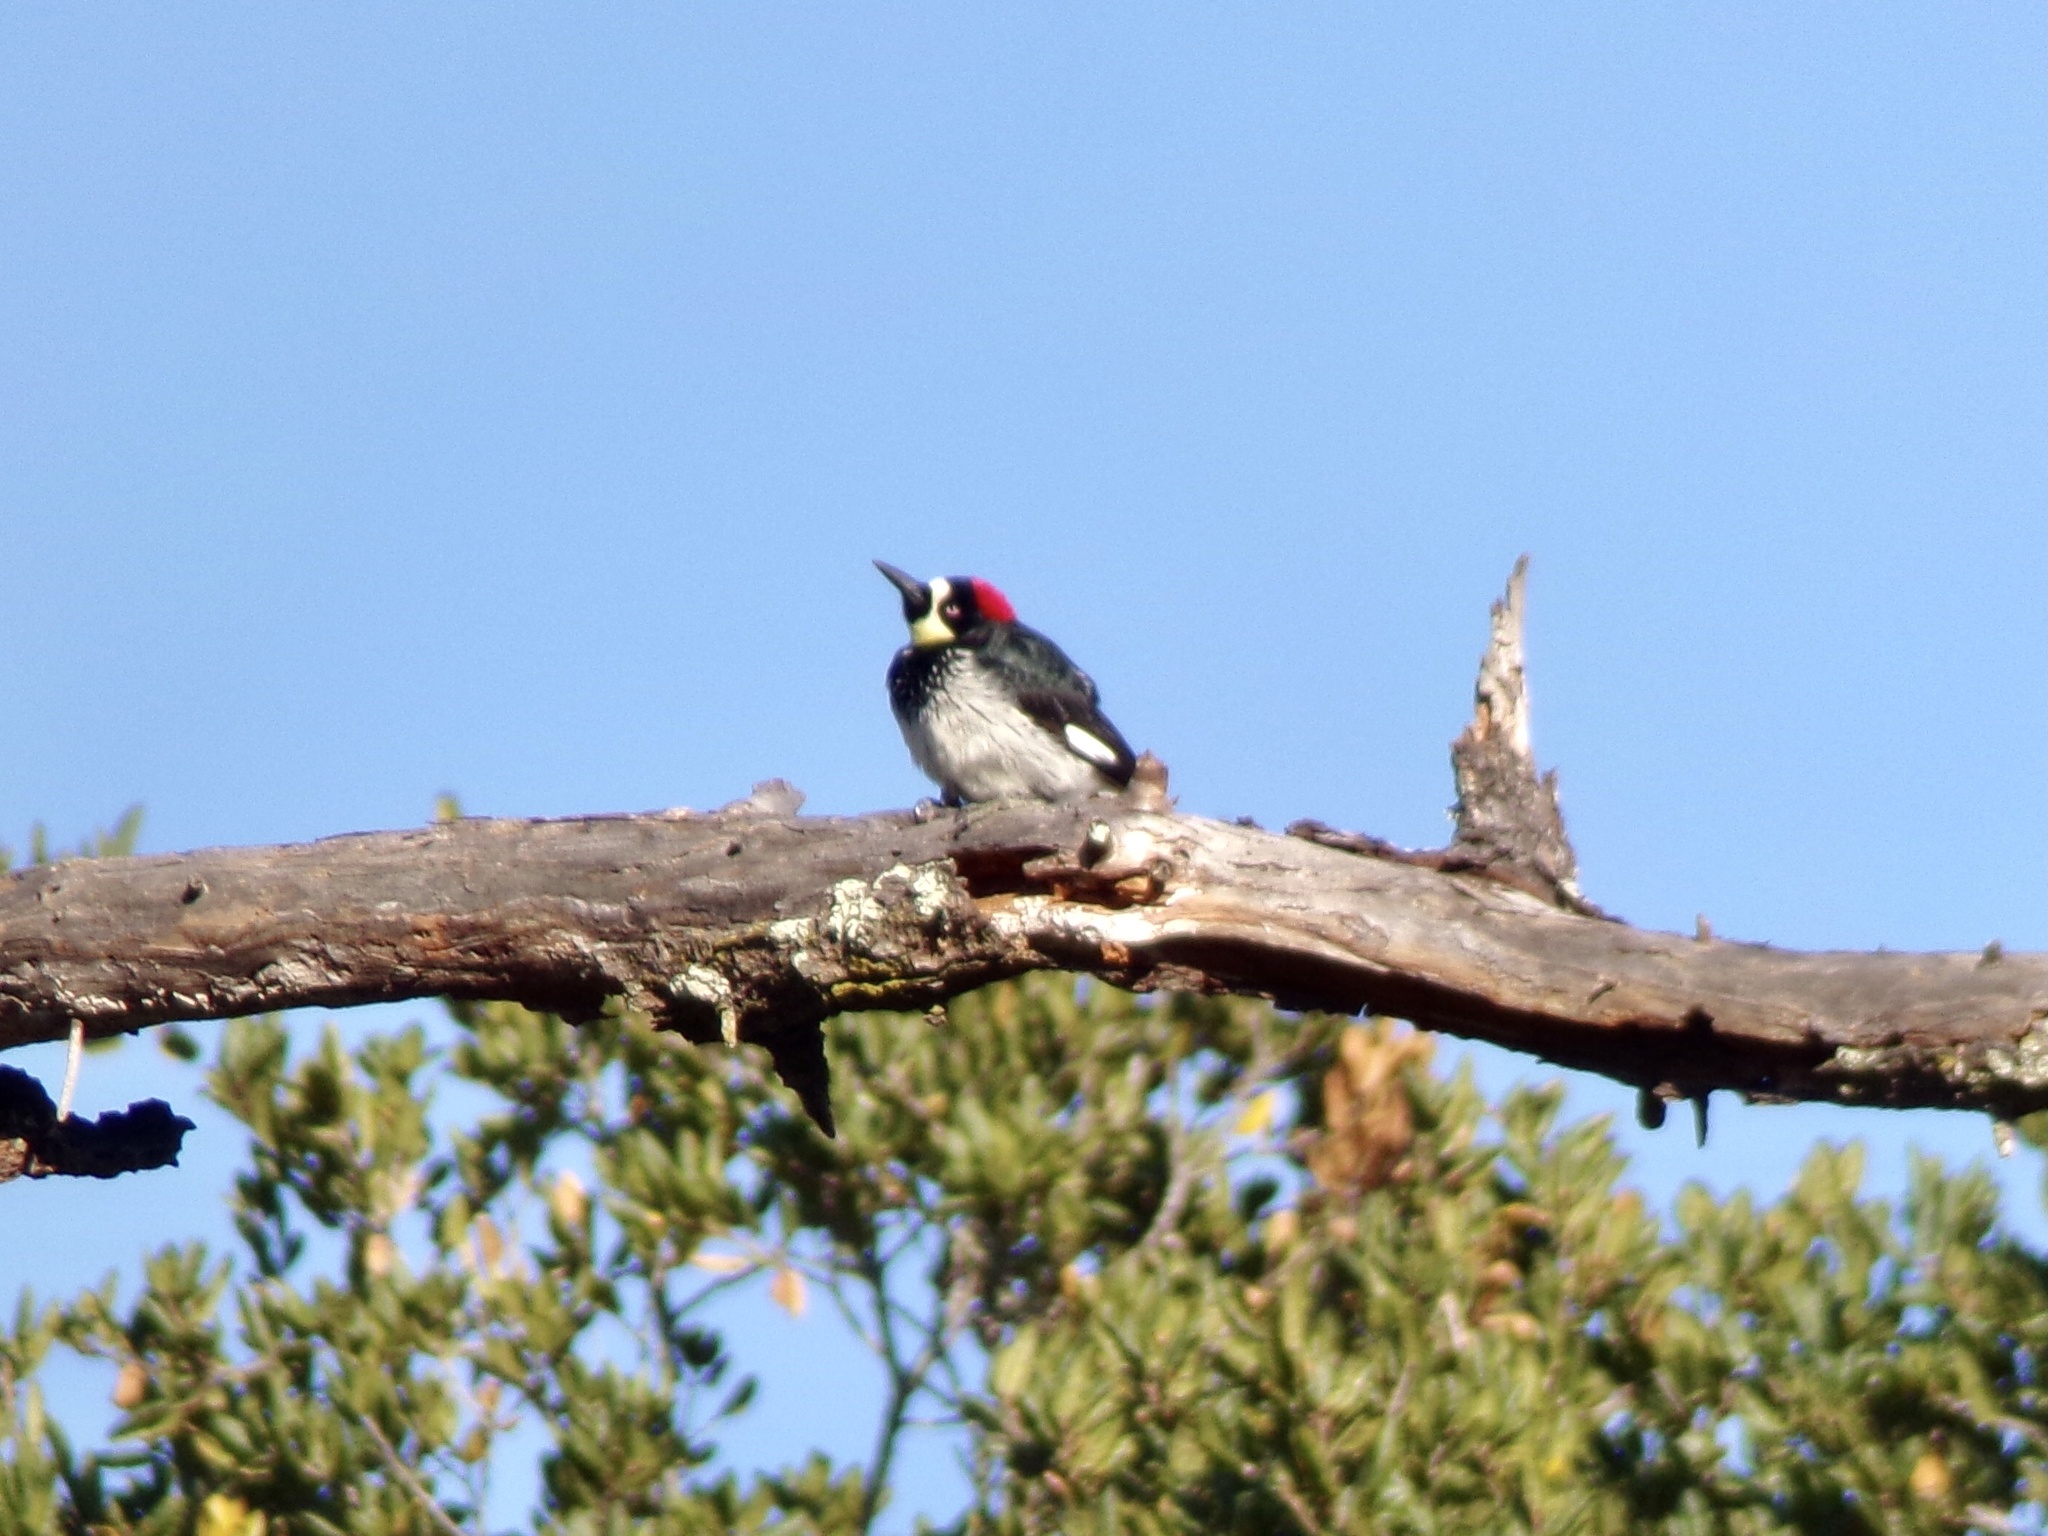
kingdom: Animalia
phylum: Chordata
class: Aves
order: Piciformes
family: Picidae
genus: Melanerpes
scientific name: Melanerpes formicivorus
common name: Acorn woodpecker
